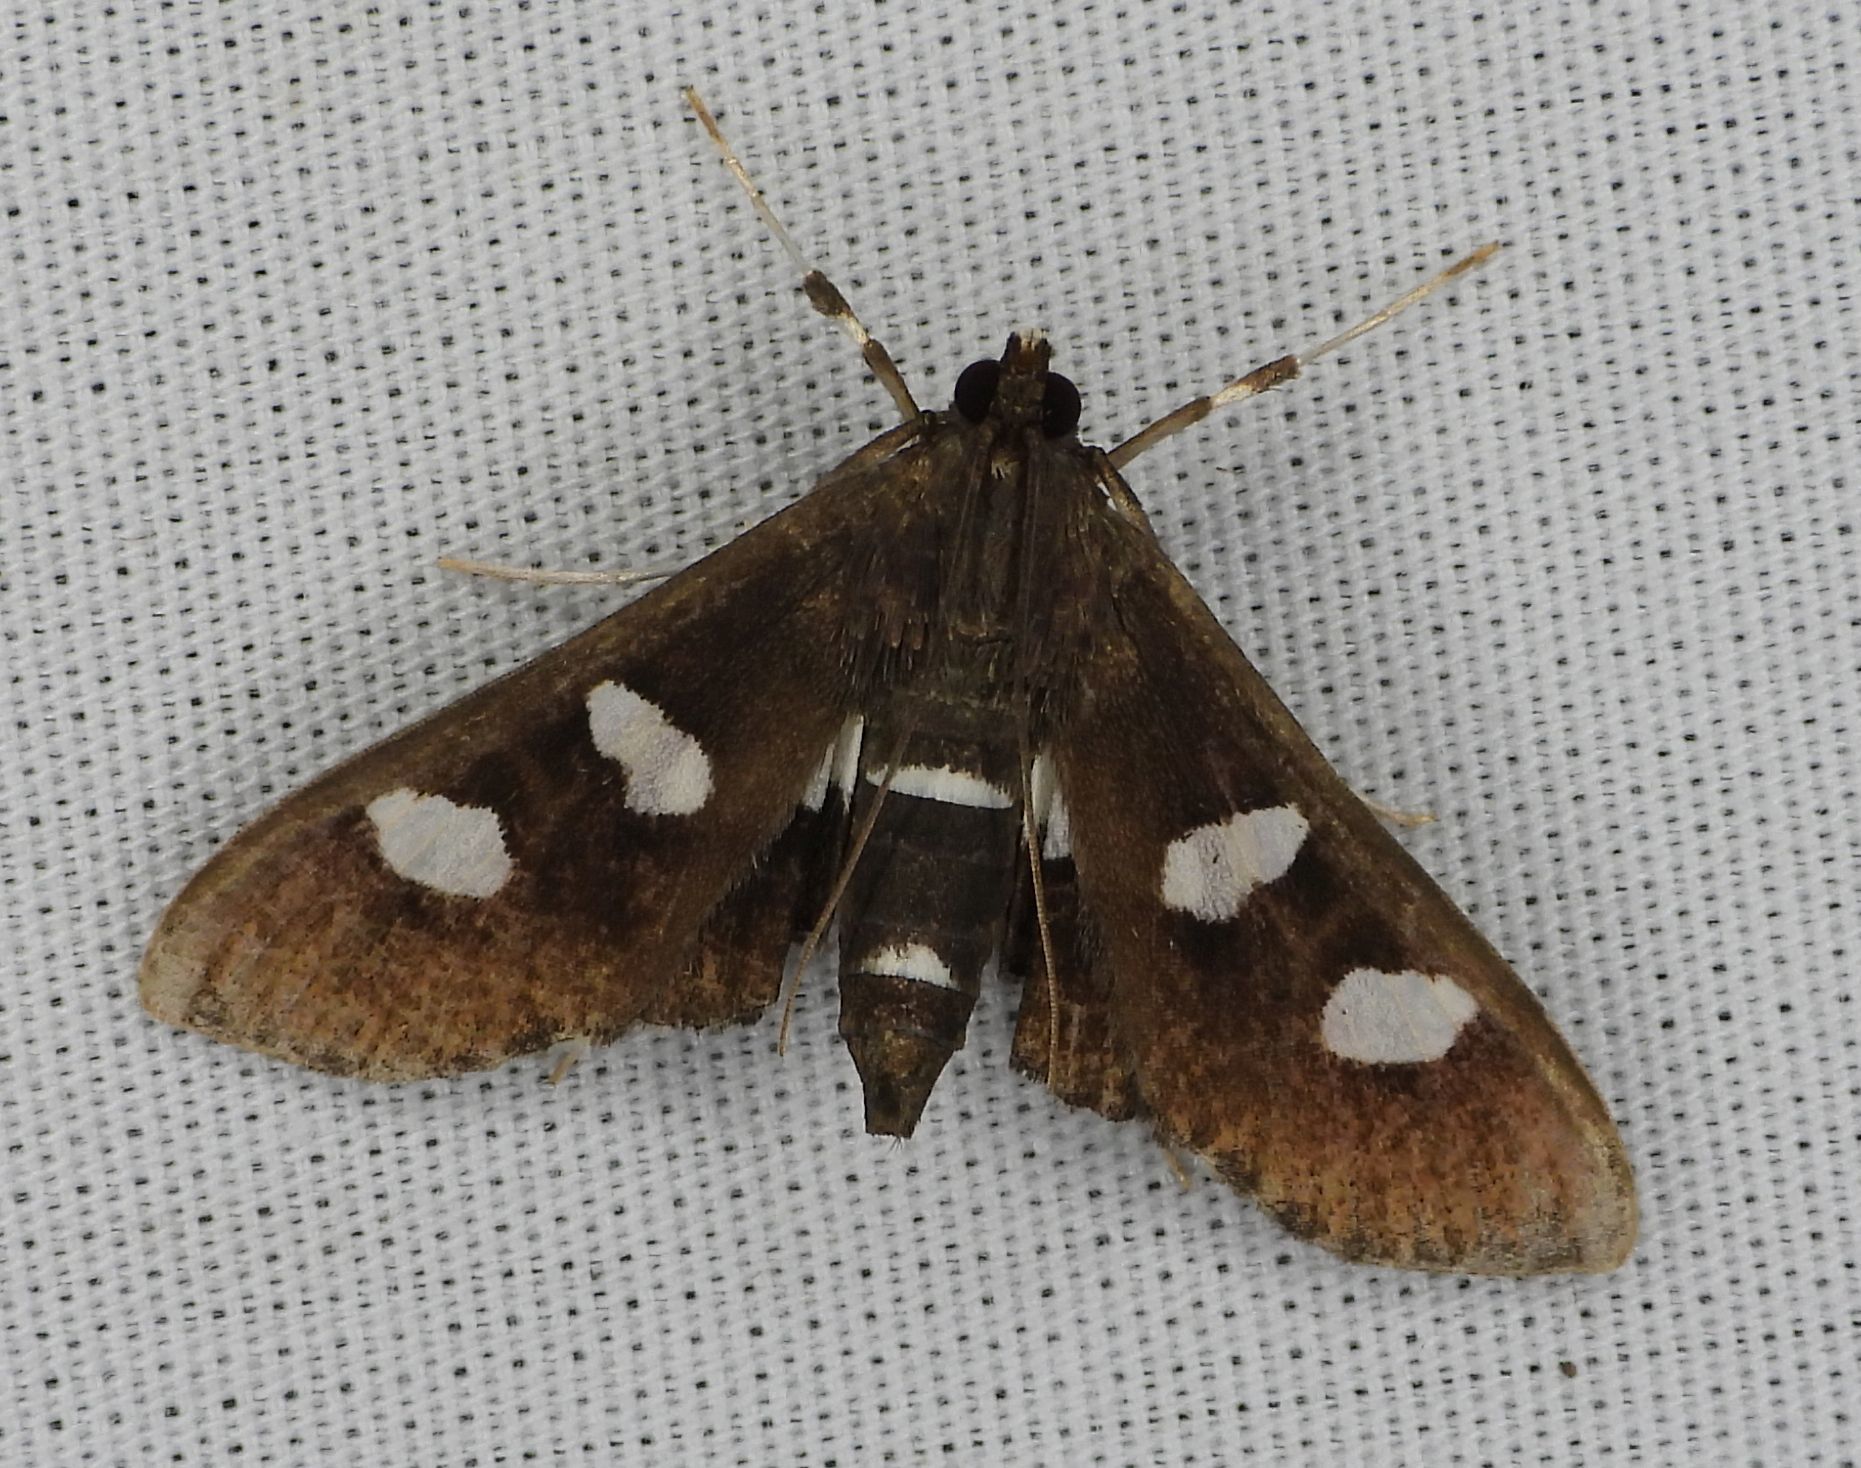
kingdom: Animalia
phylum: Arthropoda
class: Insecta
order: Lepidoptera
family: Crambidae
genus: Desmia
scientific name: Desmia
